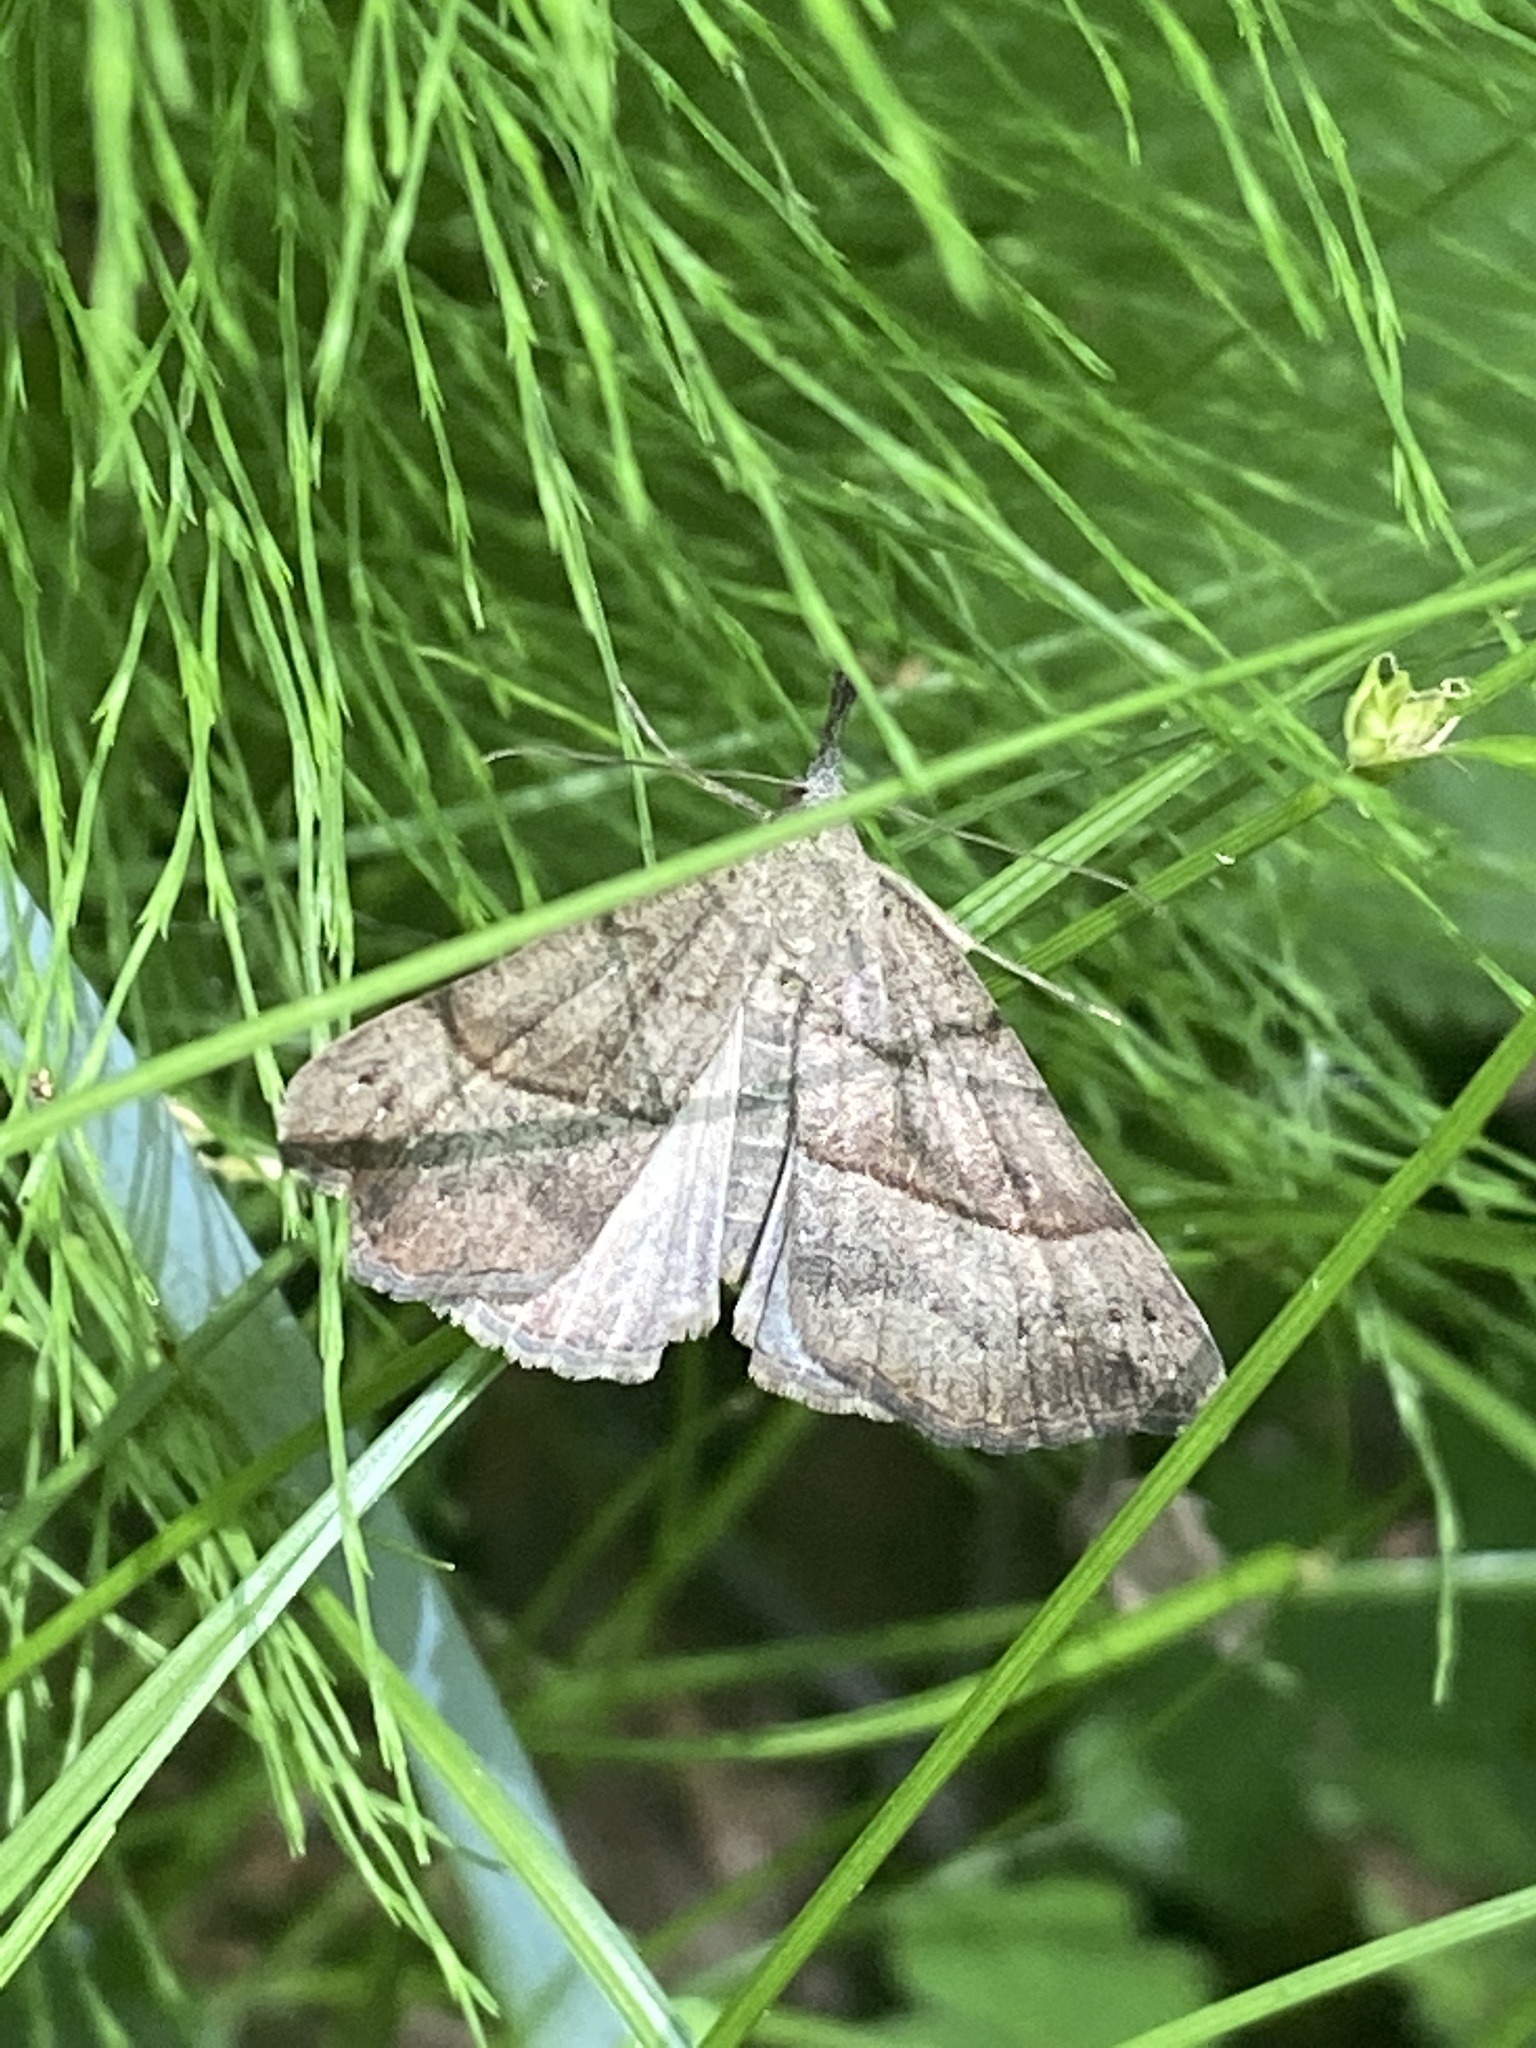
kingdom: Animalia
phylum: Arthropoda
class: Insecta
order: Lepidoptera
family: Erebidae
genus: Hypena
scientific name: Hypena proboscidalis
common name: Snout
